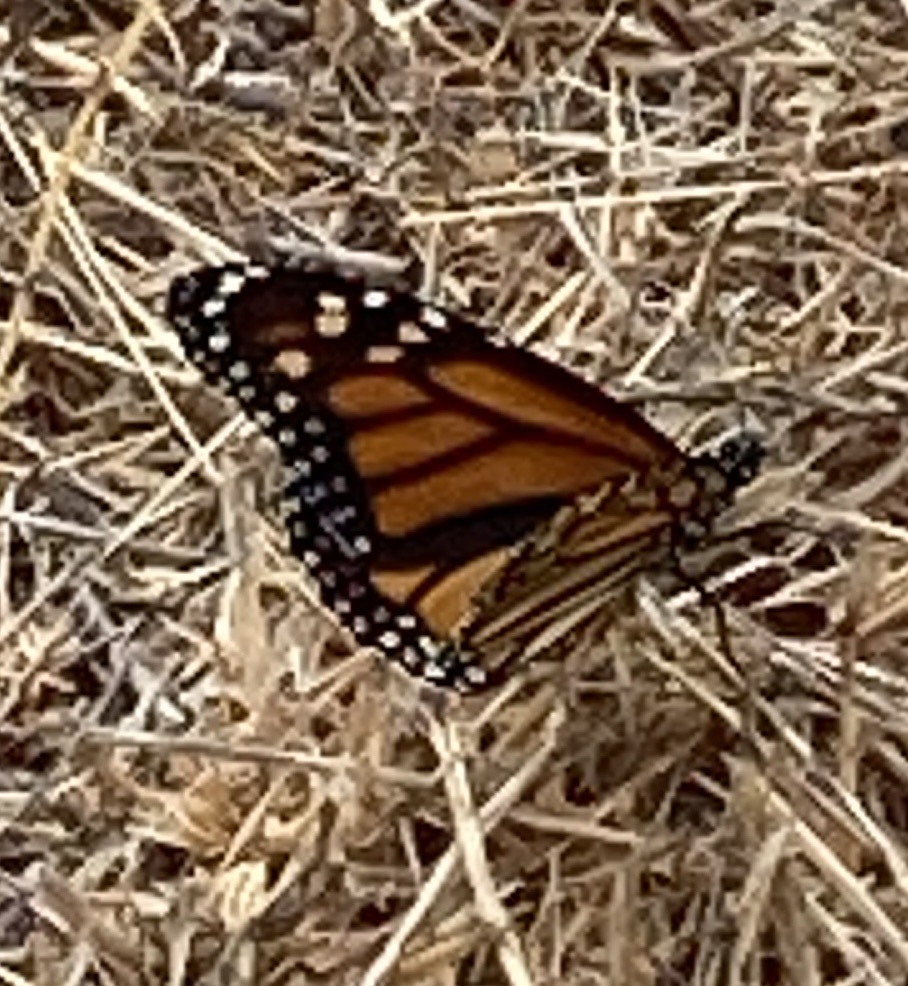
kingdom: Animalia
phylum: Arthropoda
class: Insecta
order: Lepidoptera
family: Nymphalidae
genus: Danaus
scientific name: Danaus plexippus
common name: Monarch
